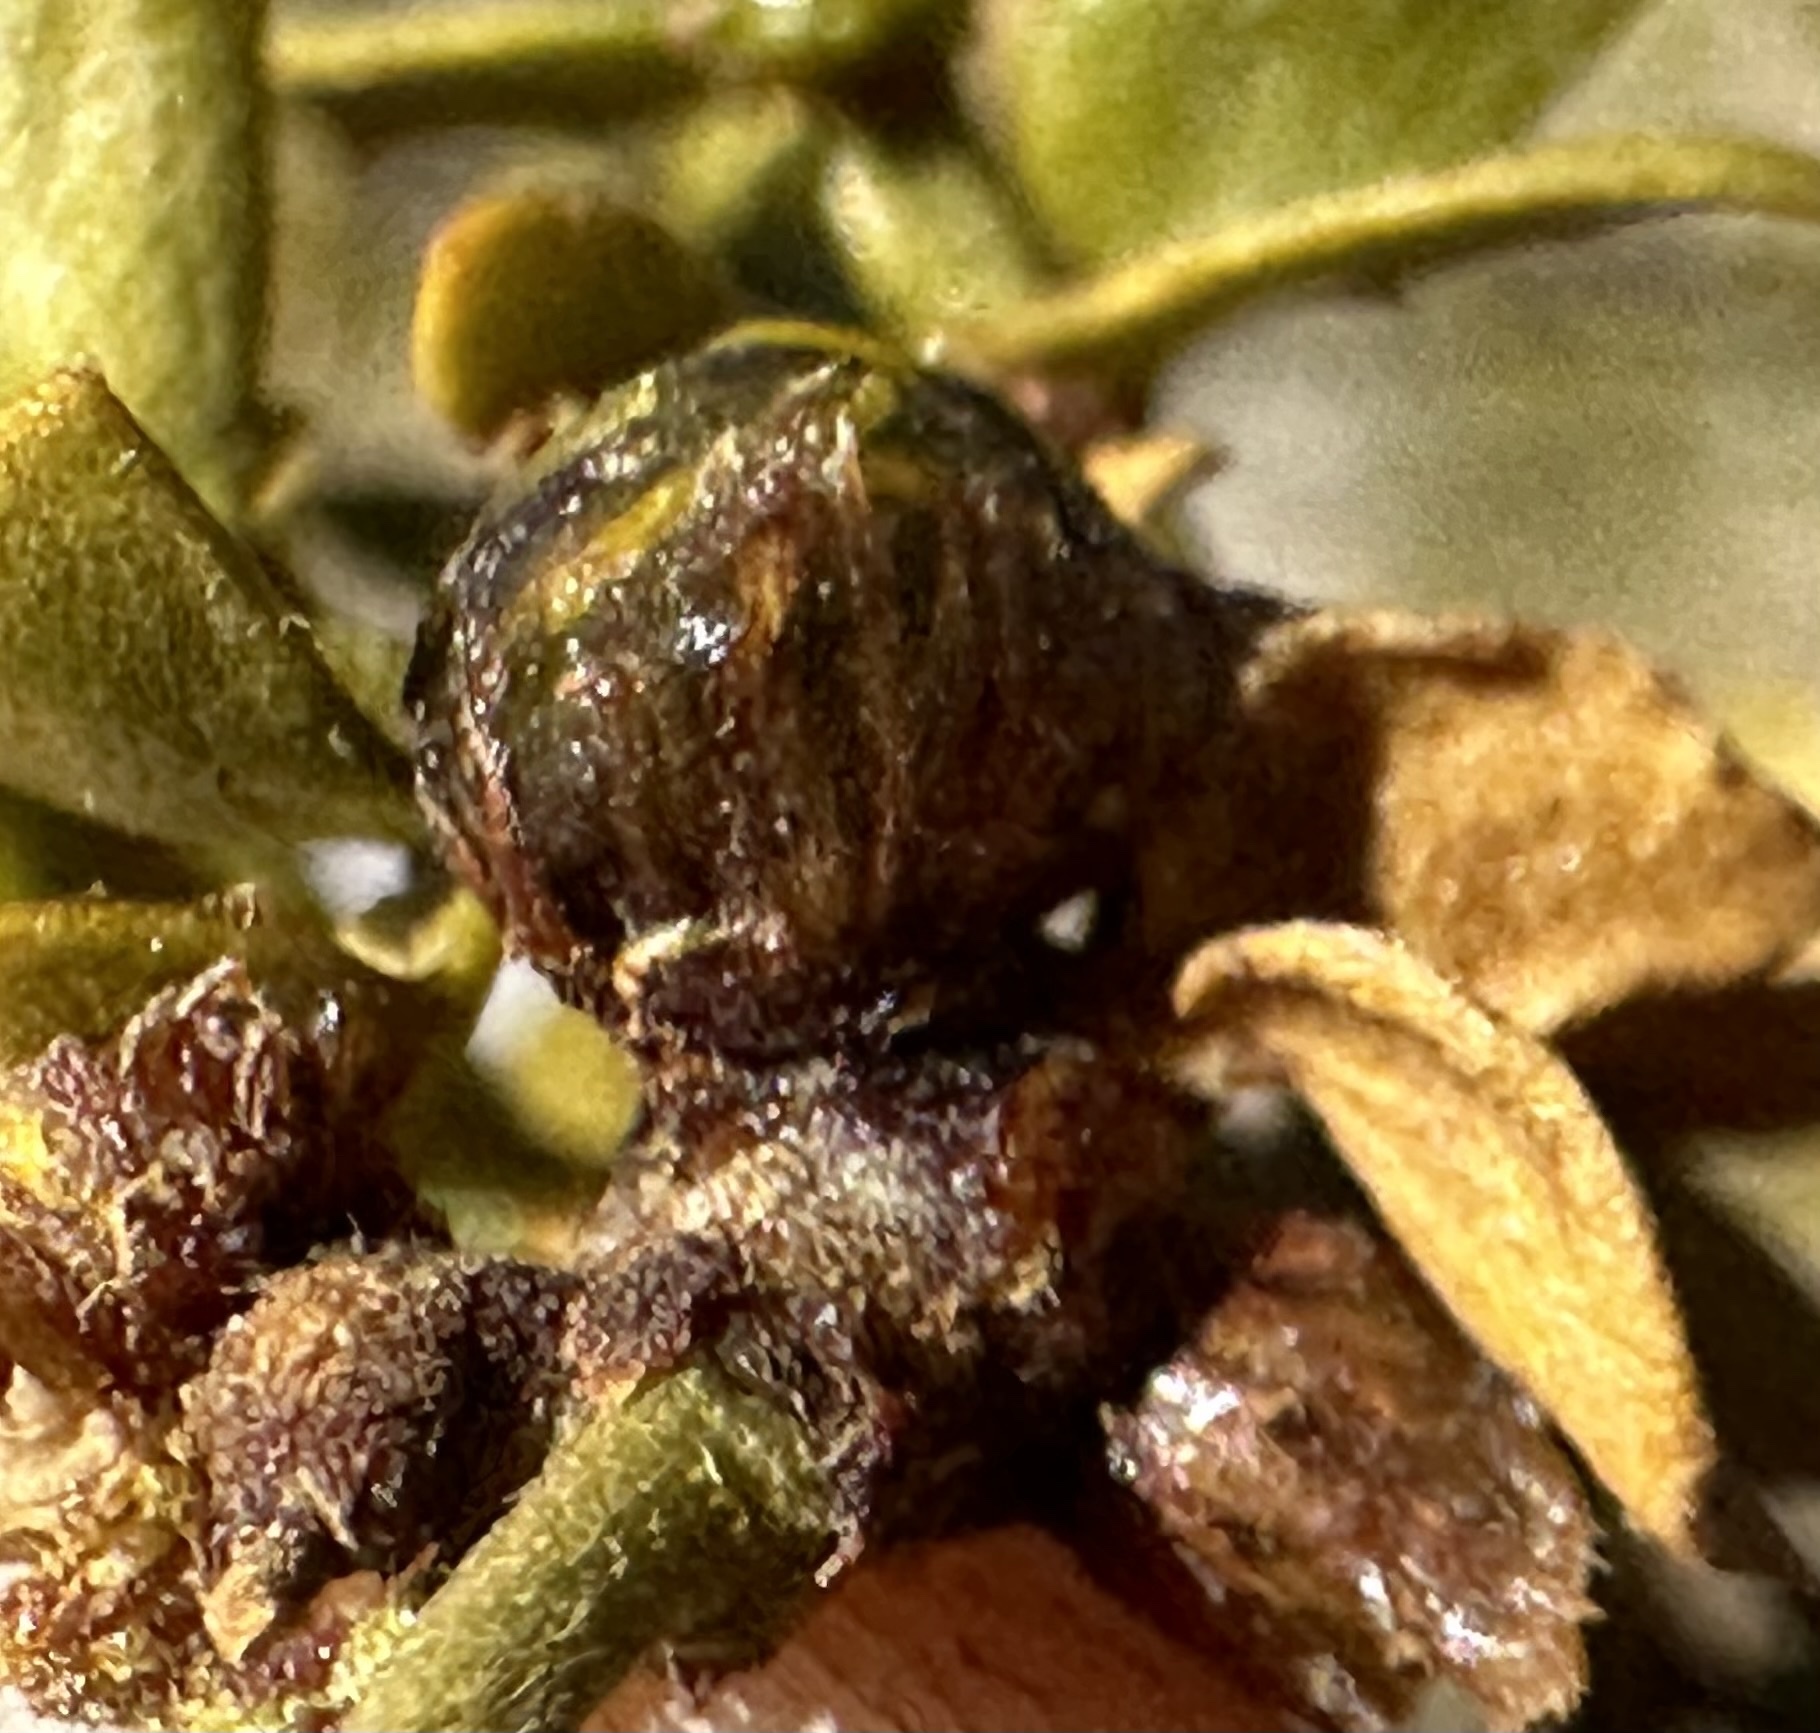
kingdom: Animalia
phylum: Arthropoda
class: Insecta
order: Diptera
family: Cecidomyiidae
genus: Asphondylia
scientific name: Asphondylia resinosa
